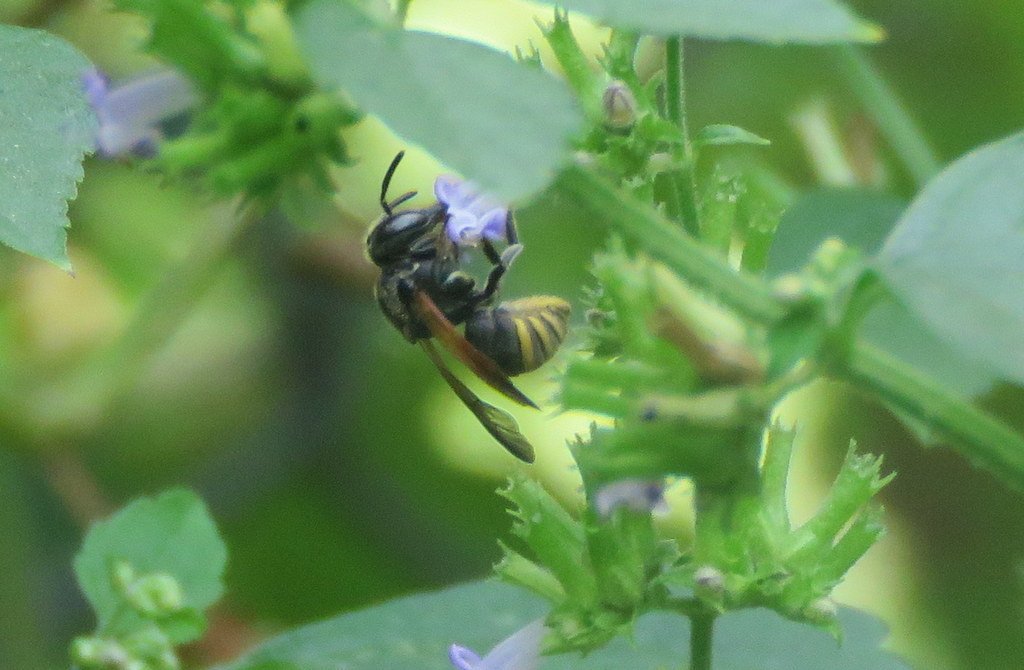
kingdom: Animalia
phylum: Arthropoda
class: Insecta
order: Hymenoptera
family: Vespidae
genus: Brachygastra
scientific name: Brachygastra lecheguana
